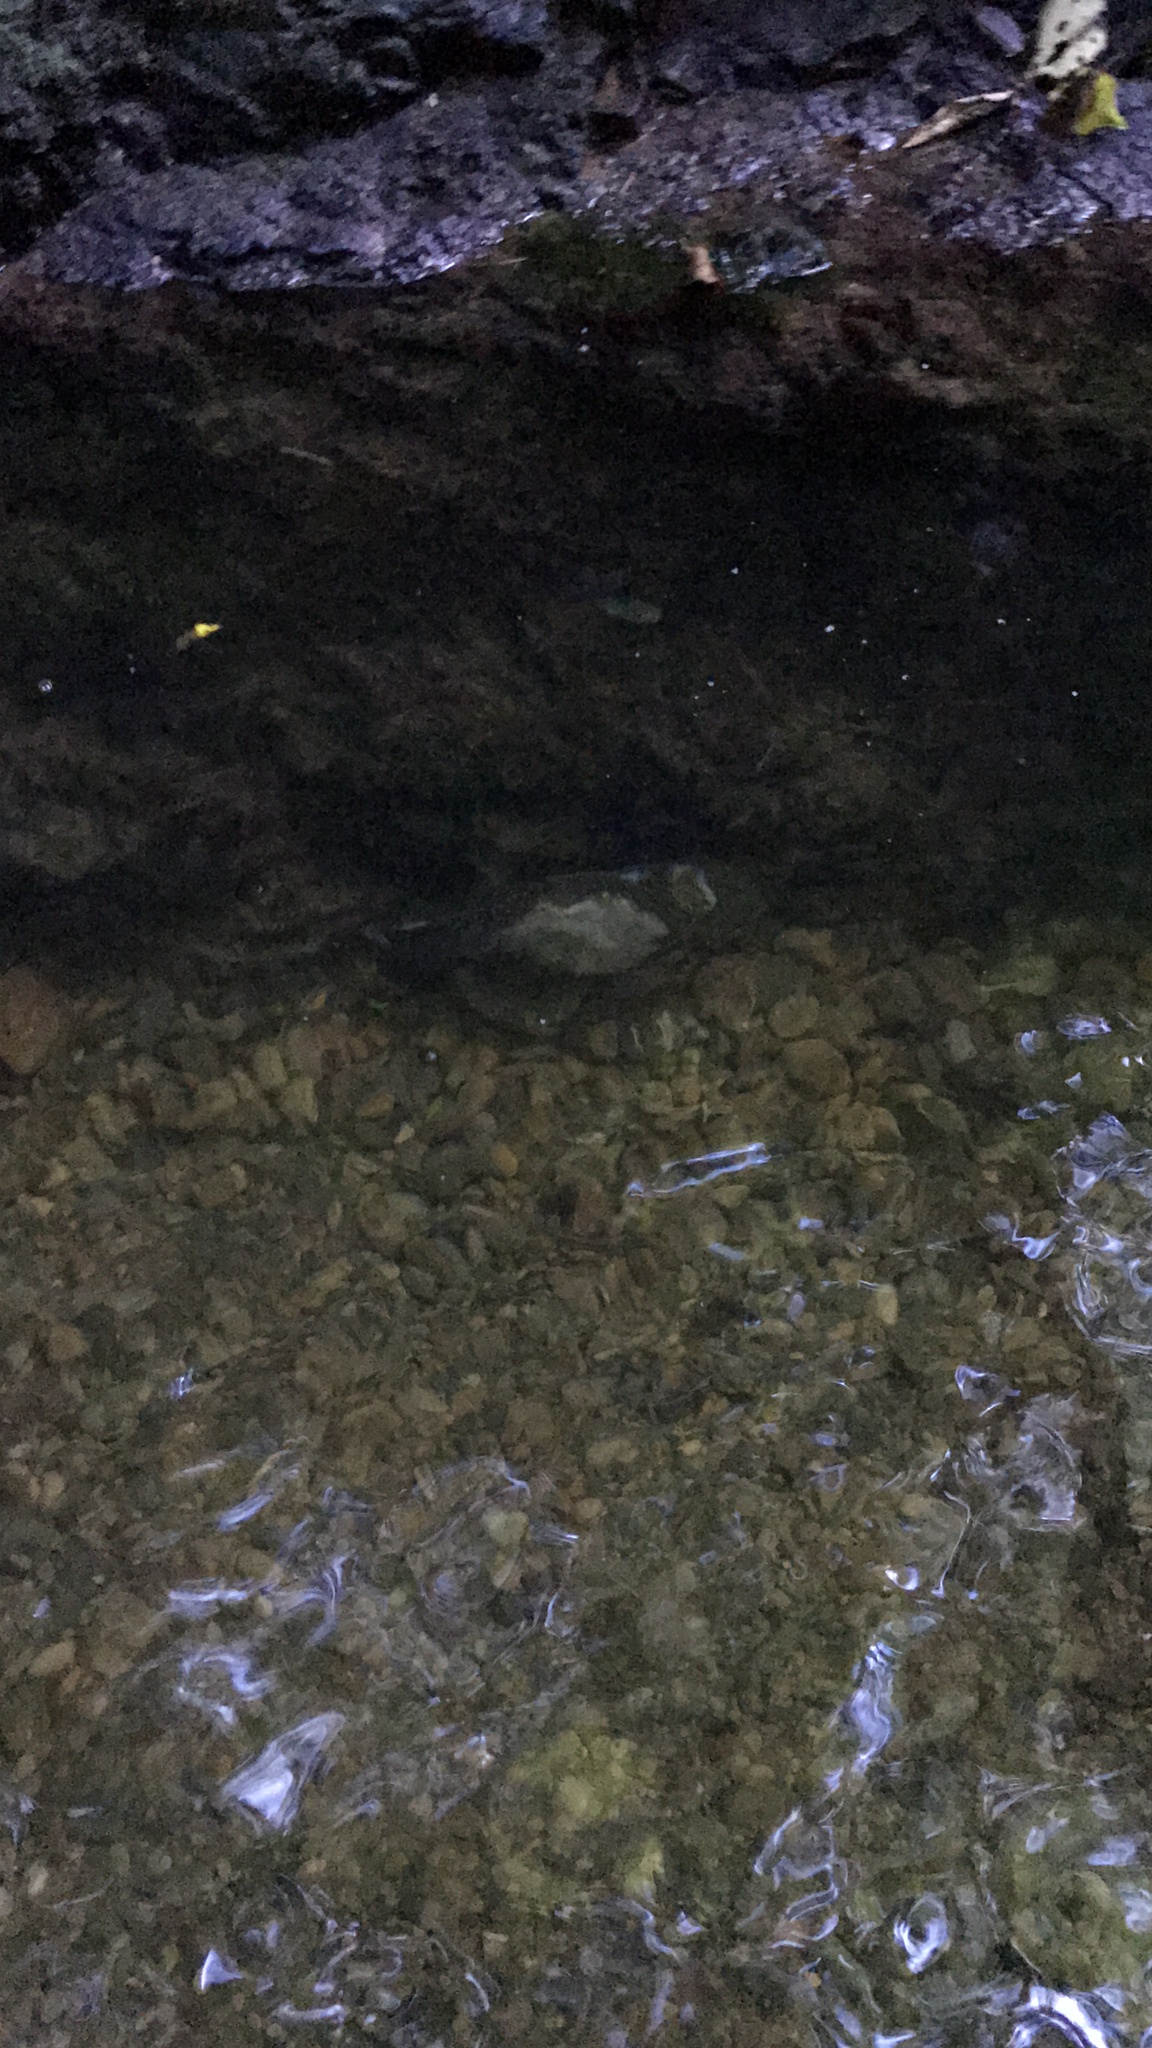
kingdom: Animalia
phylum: Chordata
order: Osmeriformes
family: Galaxiidae
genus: Galaxias
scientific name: Galaxias argenteus
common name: Giant kokopu
